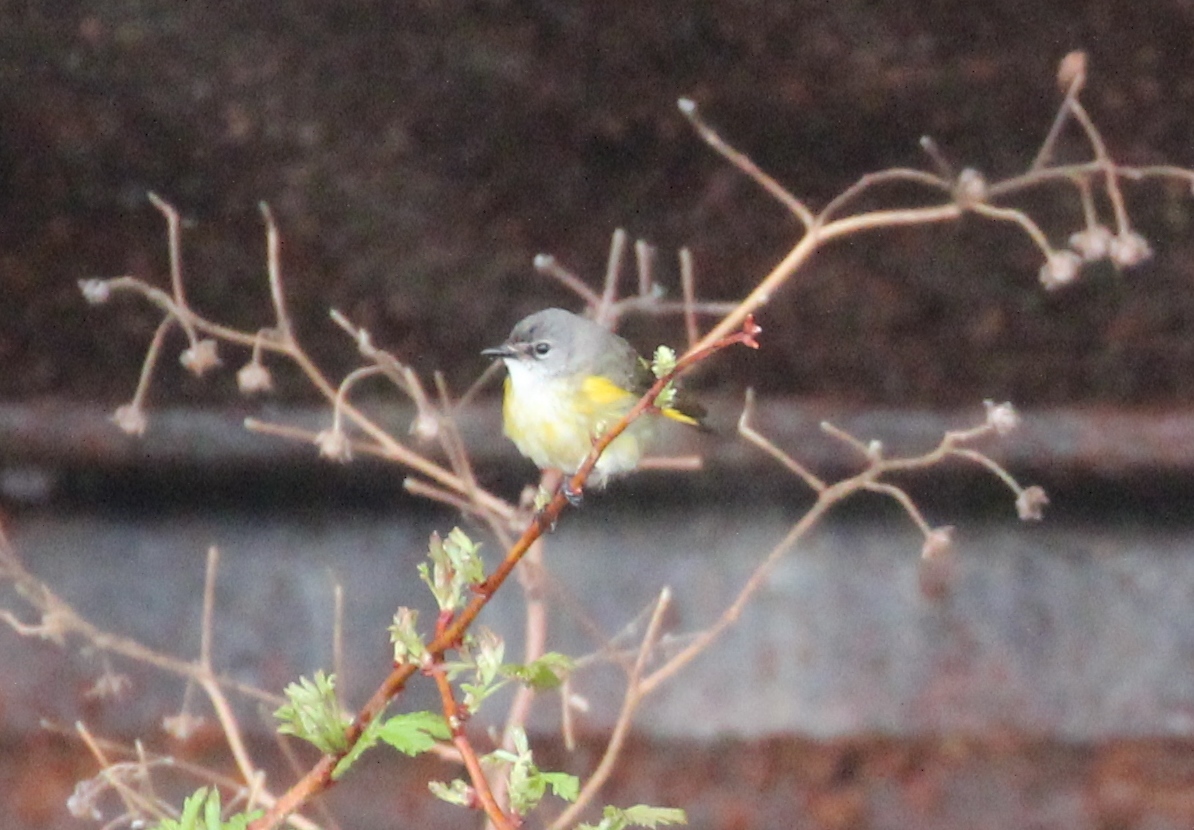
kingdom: Animalia
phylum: Chordata
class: Aves
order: Passeriformes
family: Parulidae
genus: Setophaga
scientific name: Setophaga ruticilla
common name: American redstart
